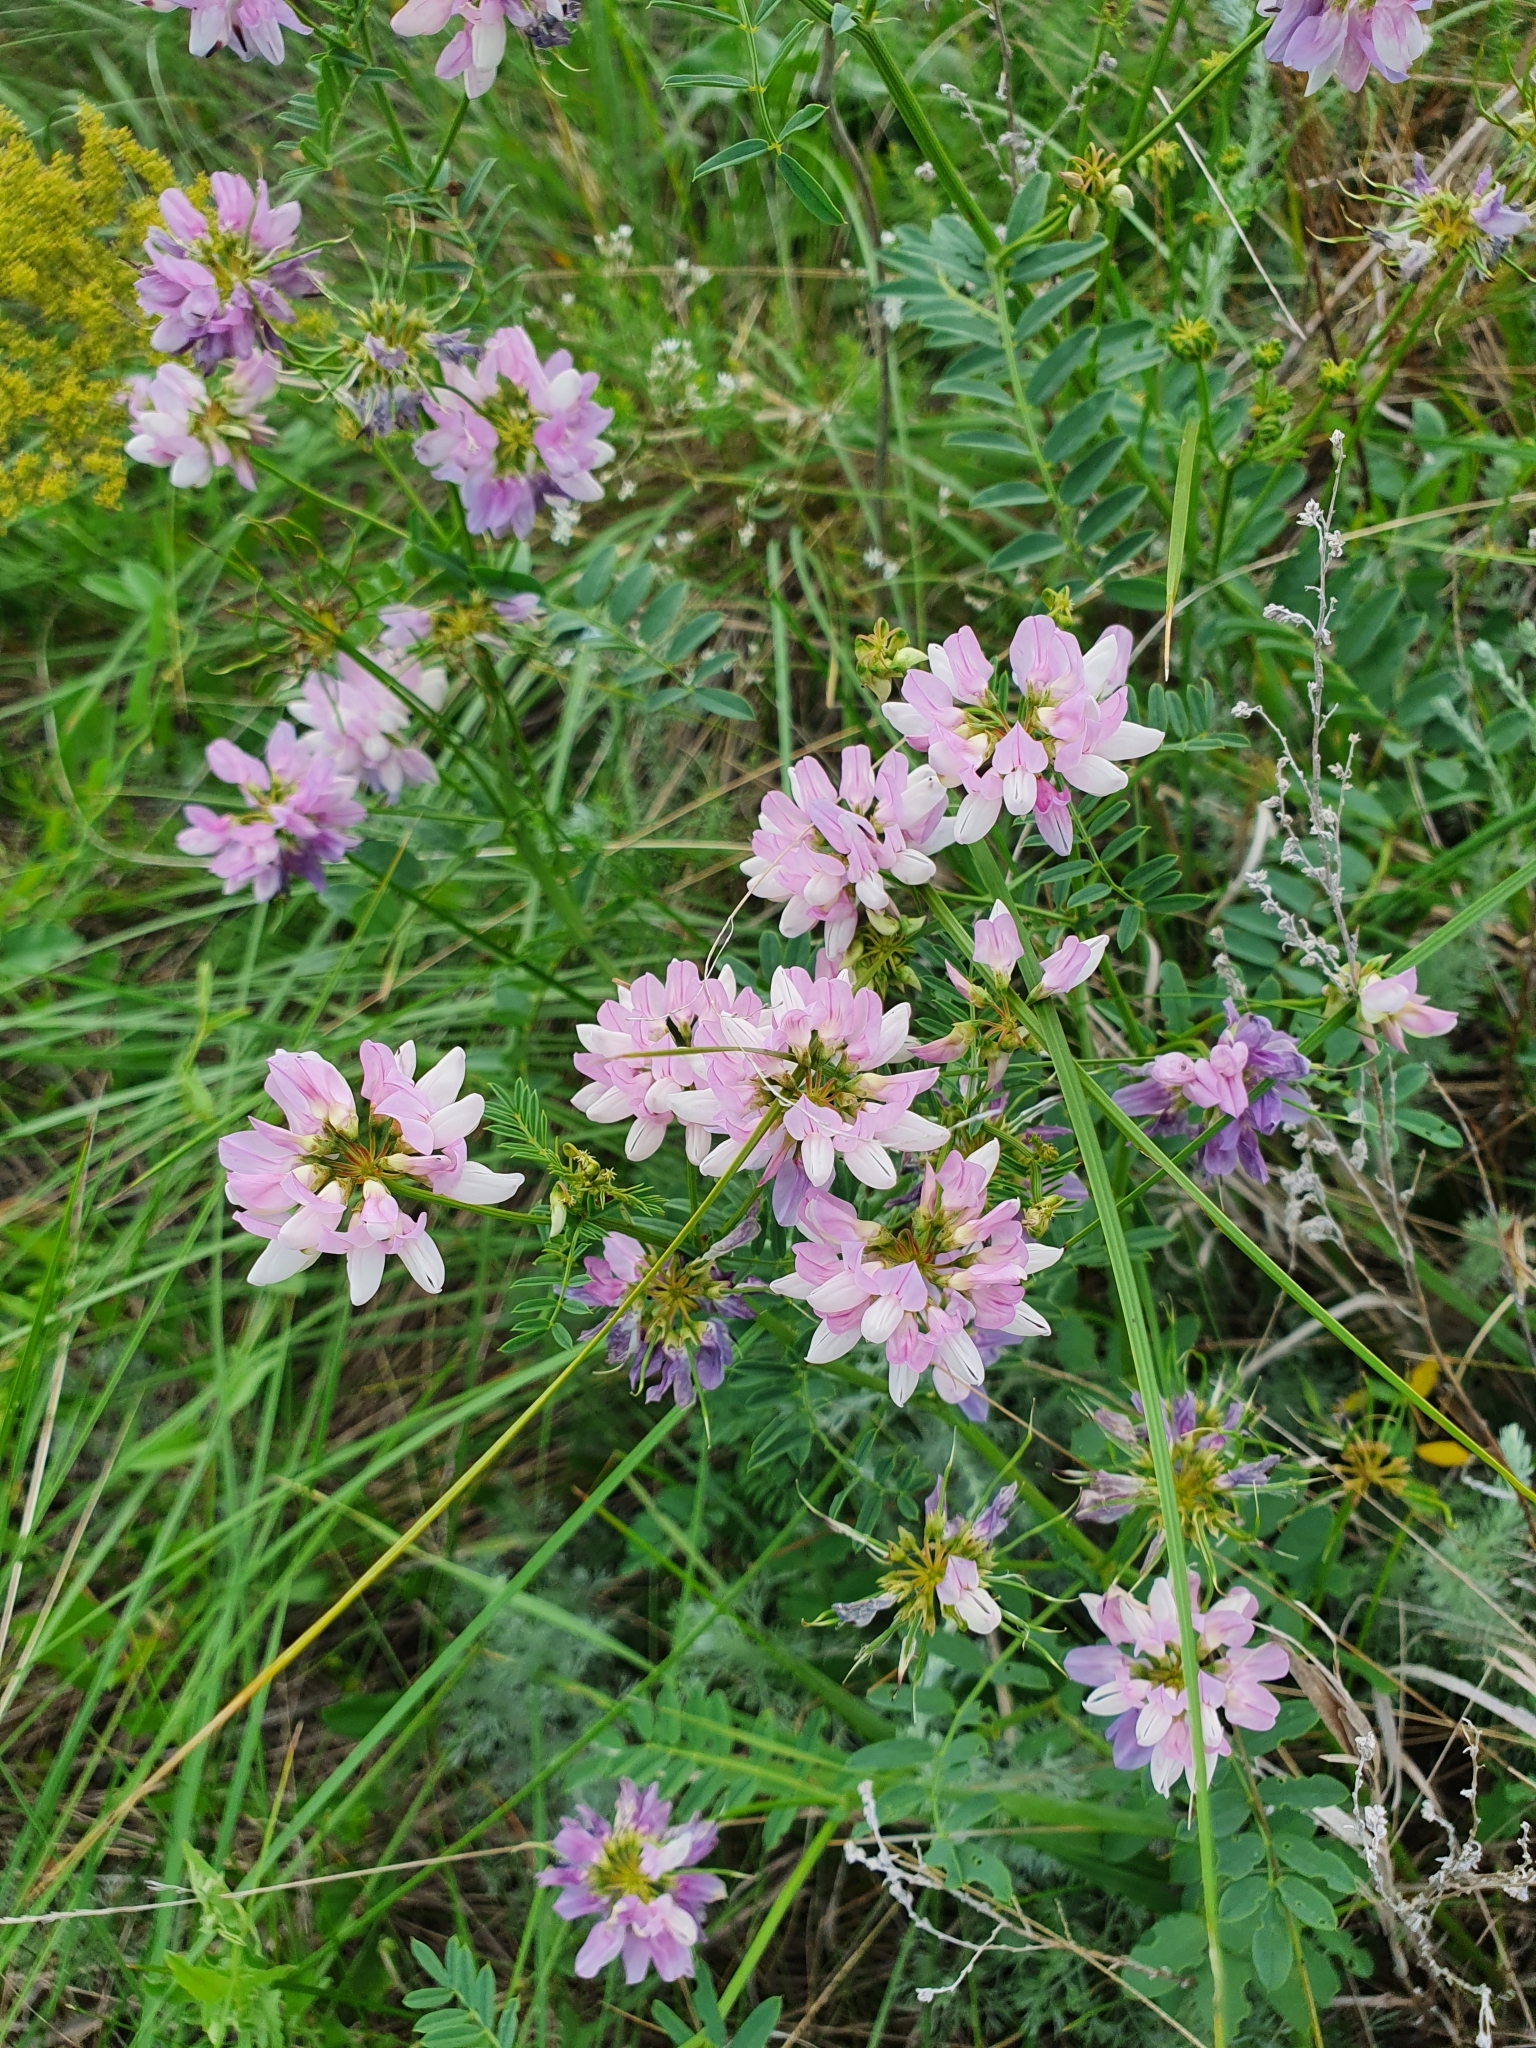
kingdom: Plantae
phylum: Tracheophyta
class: Magnoliopsida
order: Fabales
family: Fabaceae
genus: Coronilla
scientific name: Coronilla varia
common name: Crownvetch
